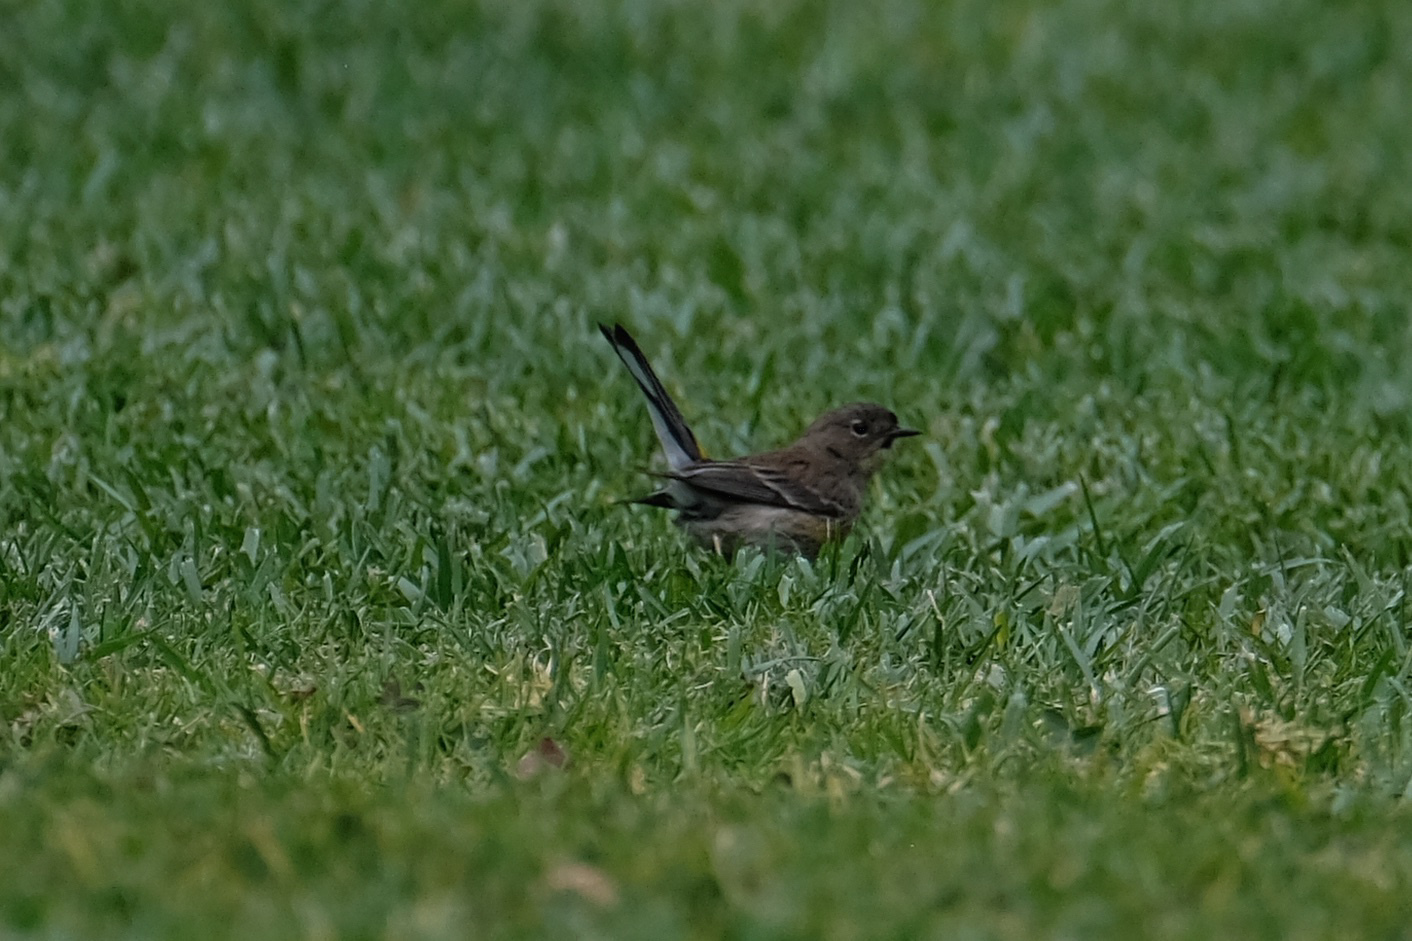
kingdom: Animalia
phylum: Chordata
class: Aves
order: Passeriformes
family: Parulidae
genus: Setophaga
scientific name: Setophaga coronata
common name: Myrtle warbler
